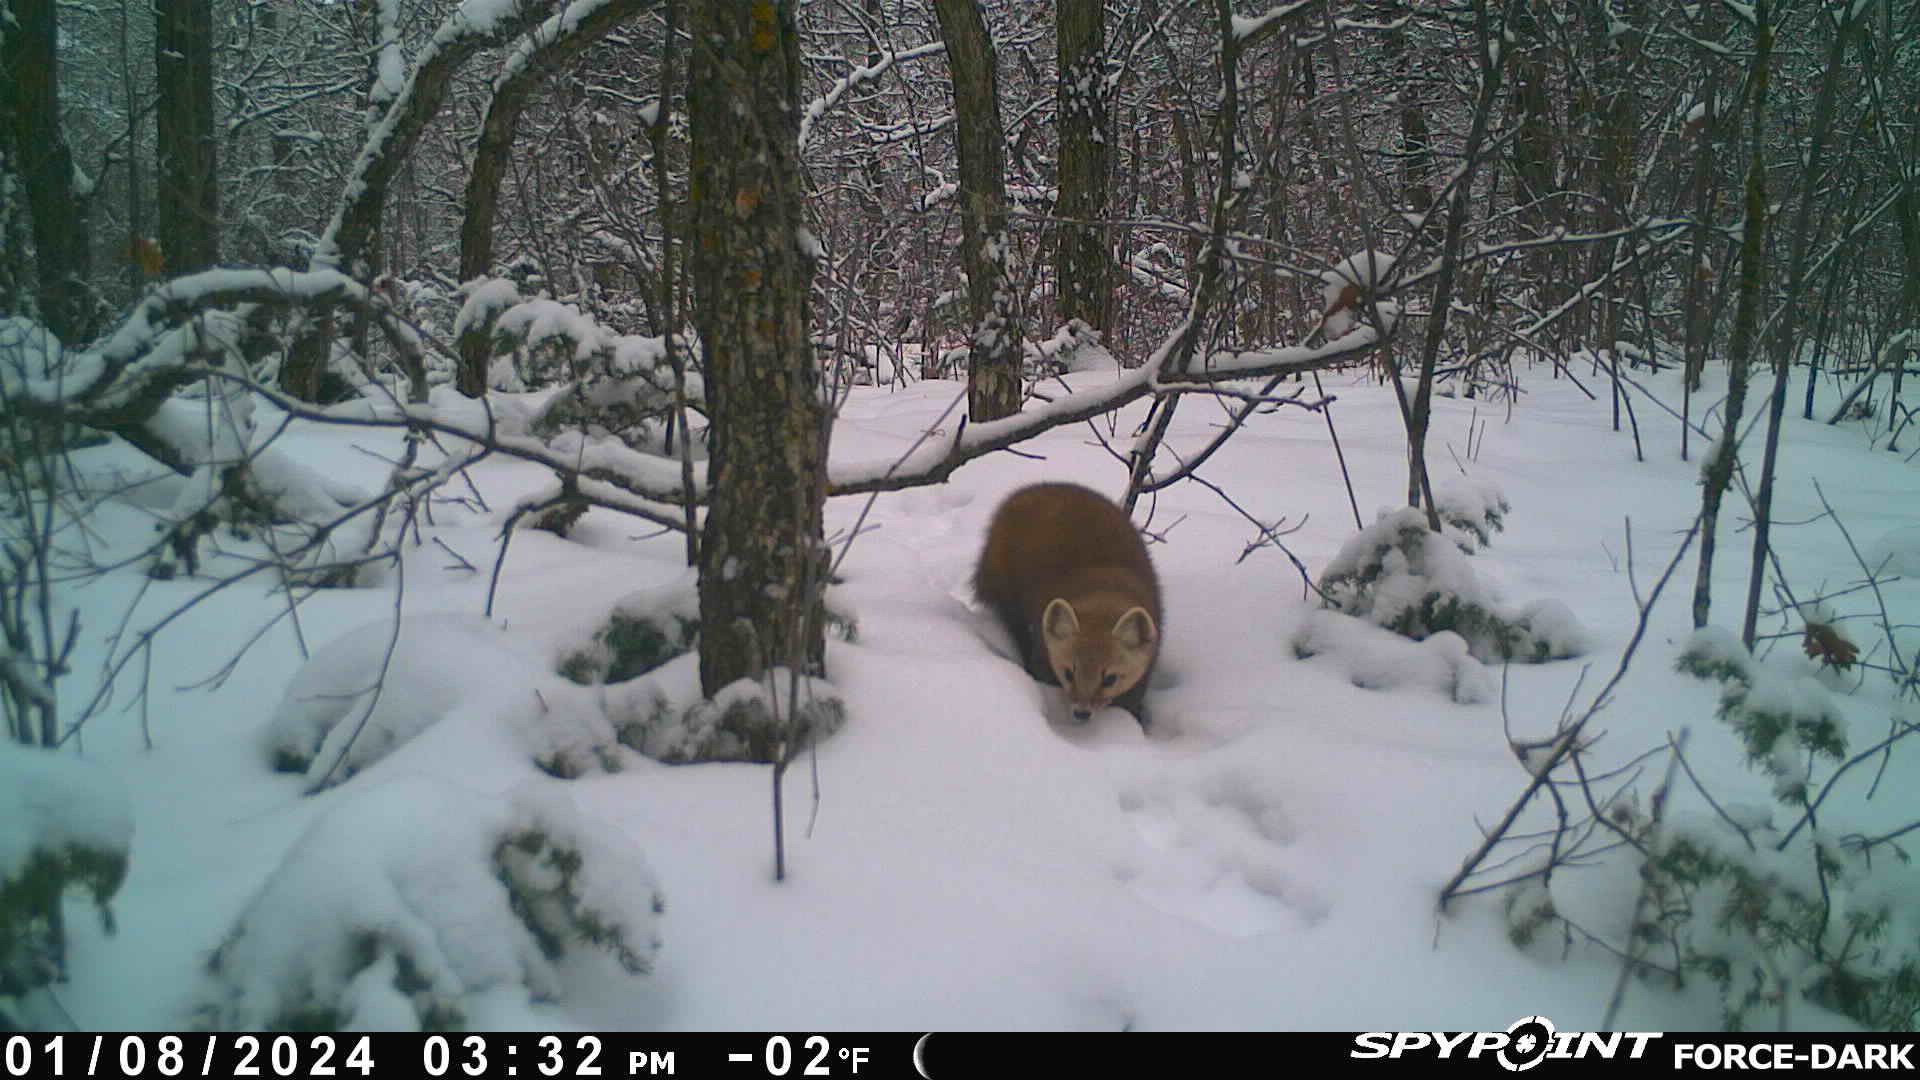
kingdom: Animalia
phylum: Chordata
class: Mammalia
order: Carnivora
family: Mustelidae
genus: Martes
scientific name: Martes americana
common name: American marten
